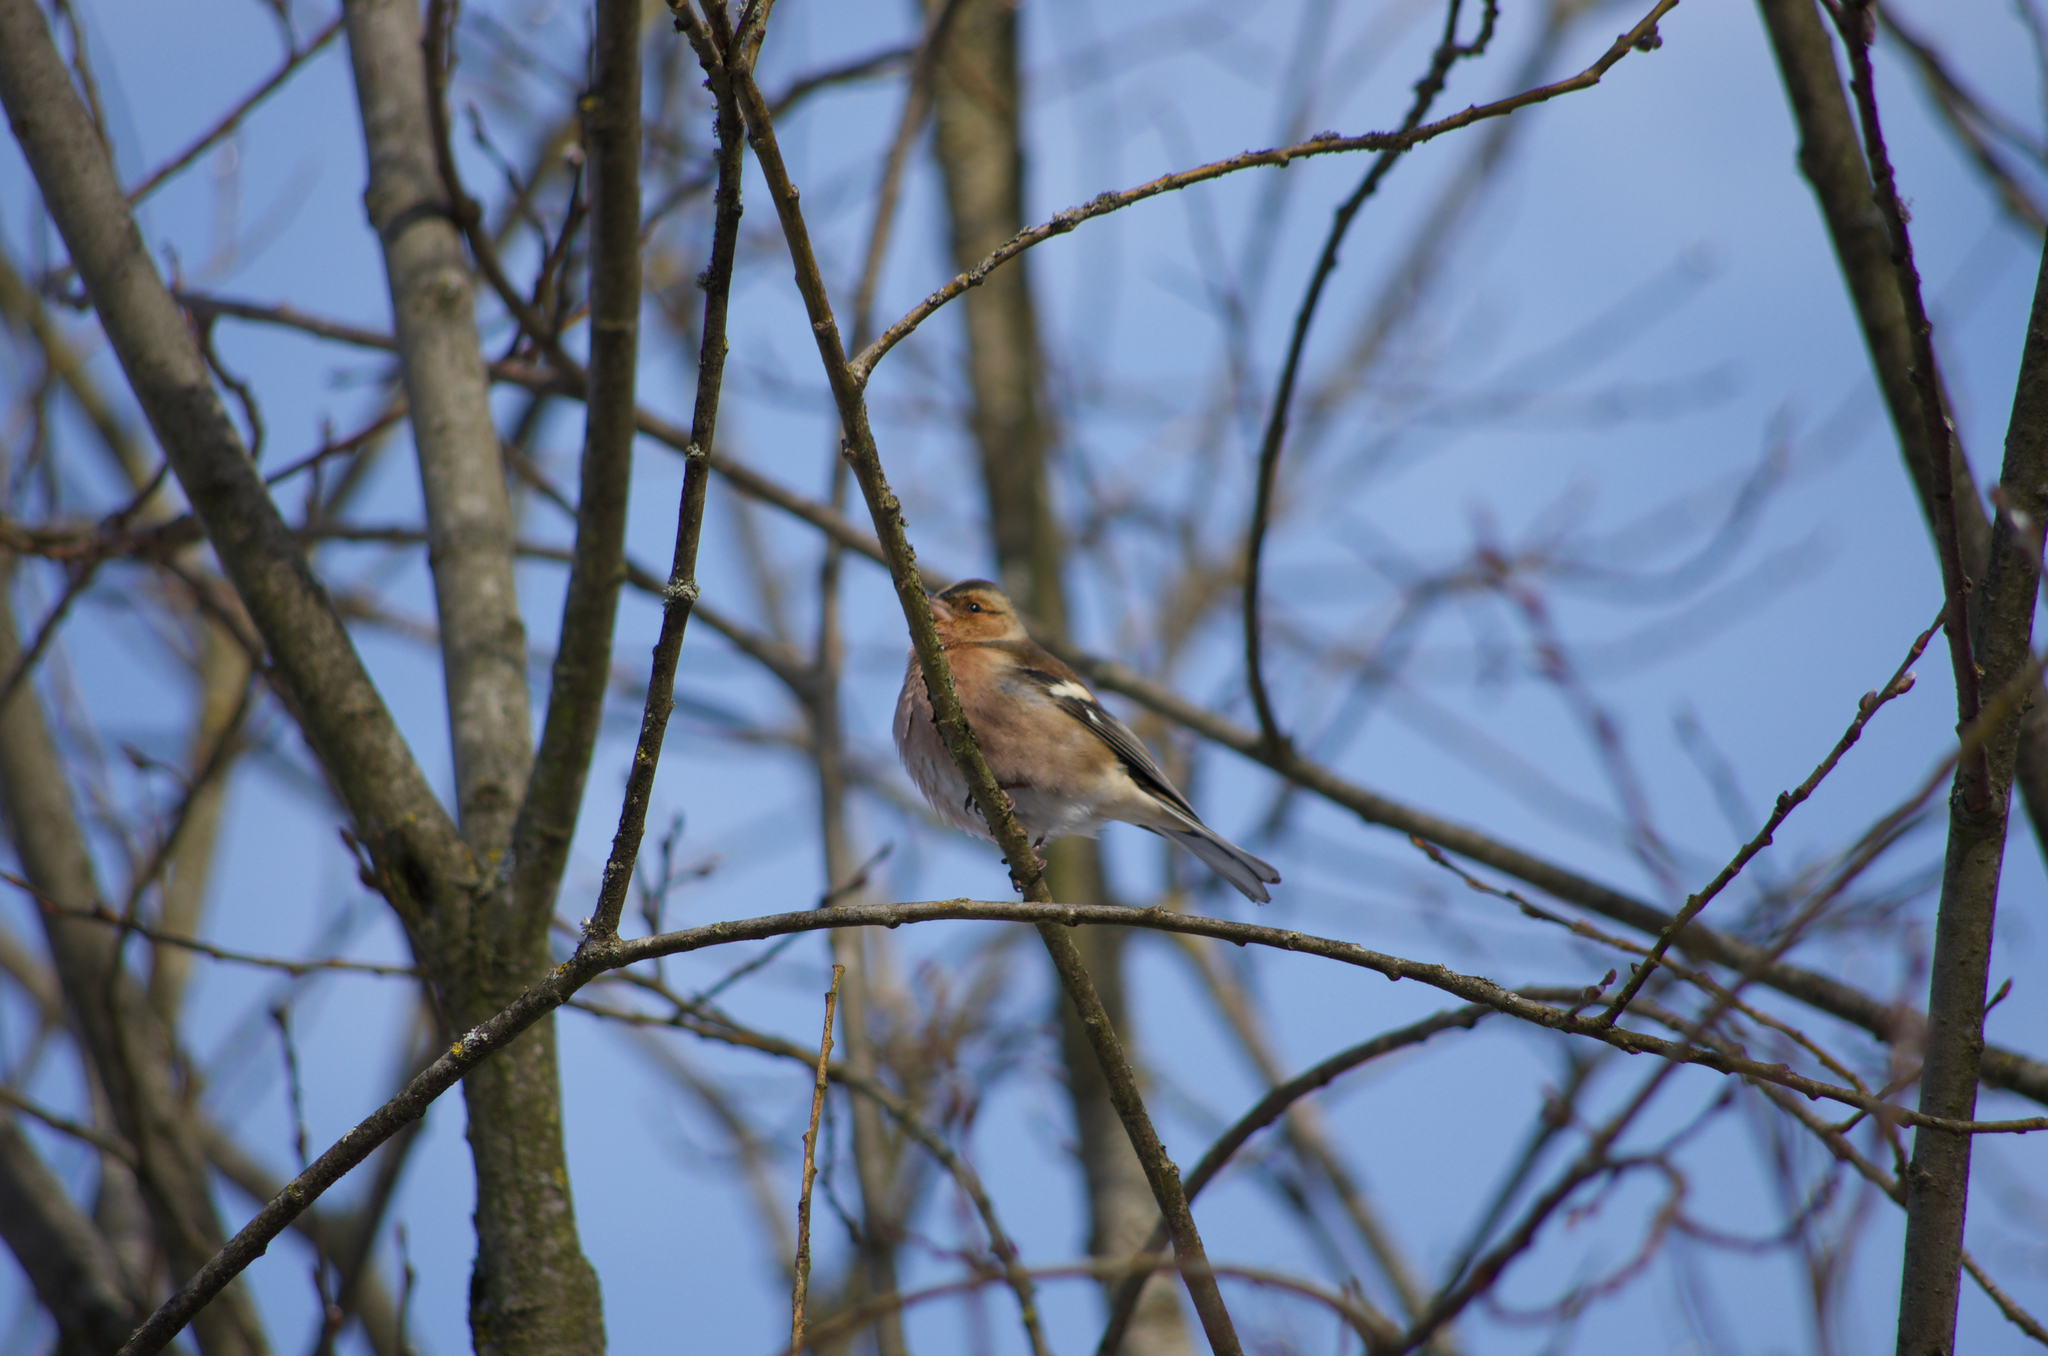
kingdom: Animalia
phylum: Chordata
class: Aves
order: Passeriformes
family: Fringillidae
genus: Fringilla
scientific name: Fringilla coelebs
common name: Common chaffinch
